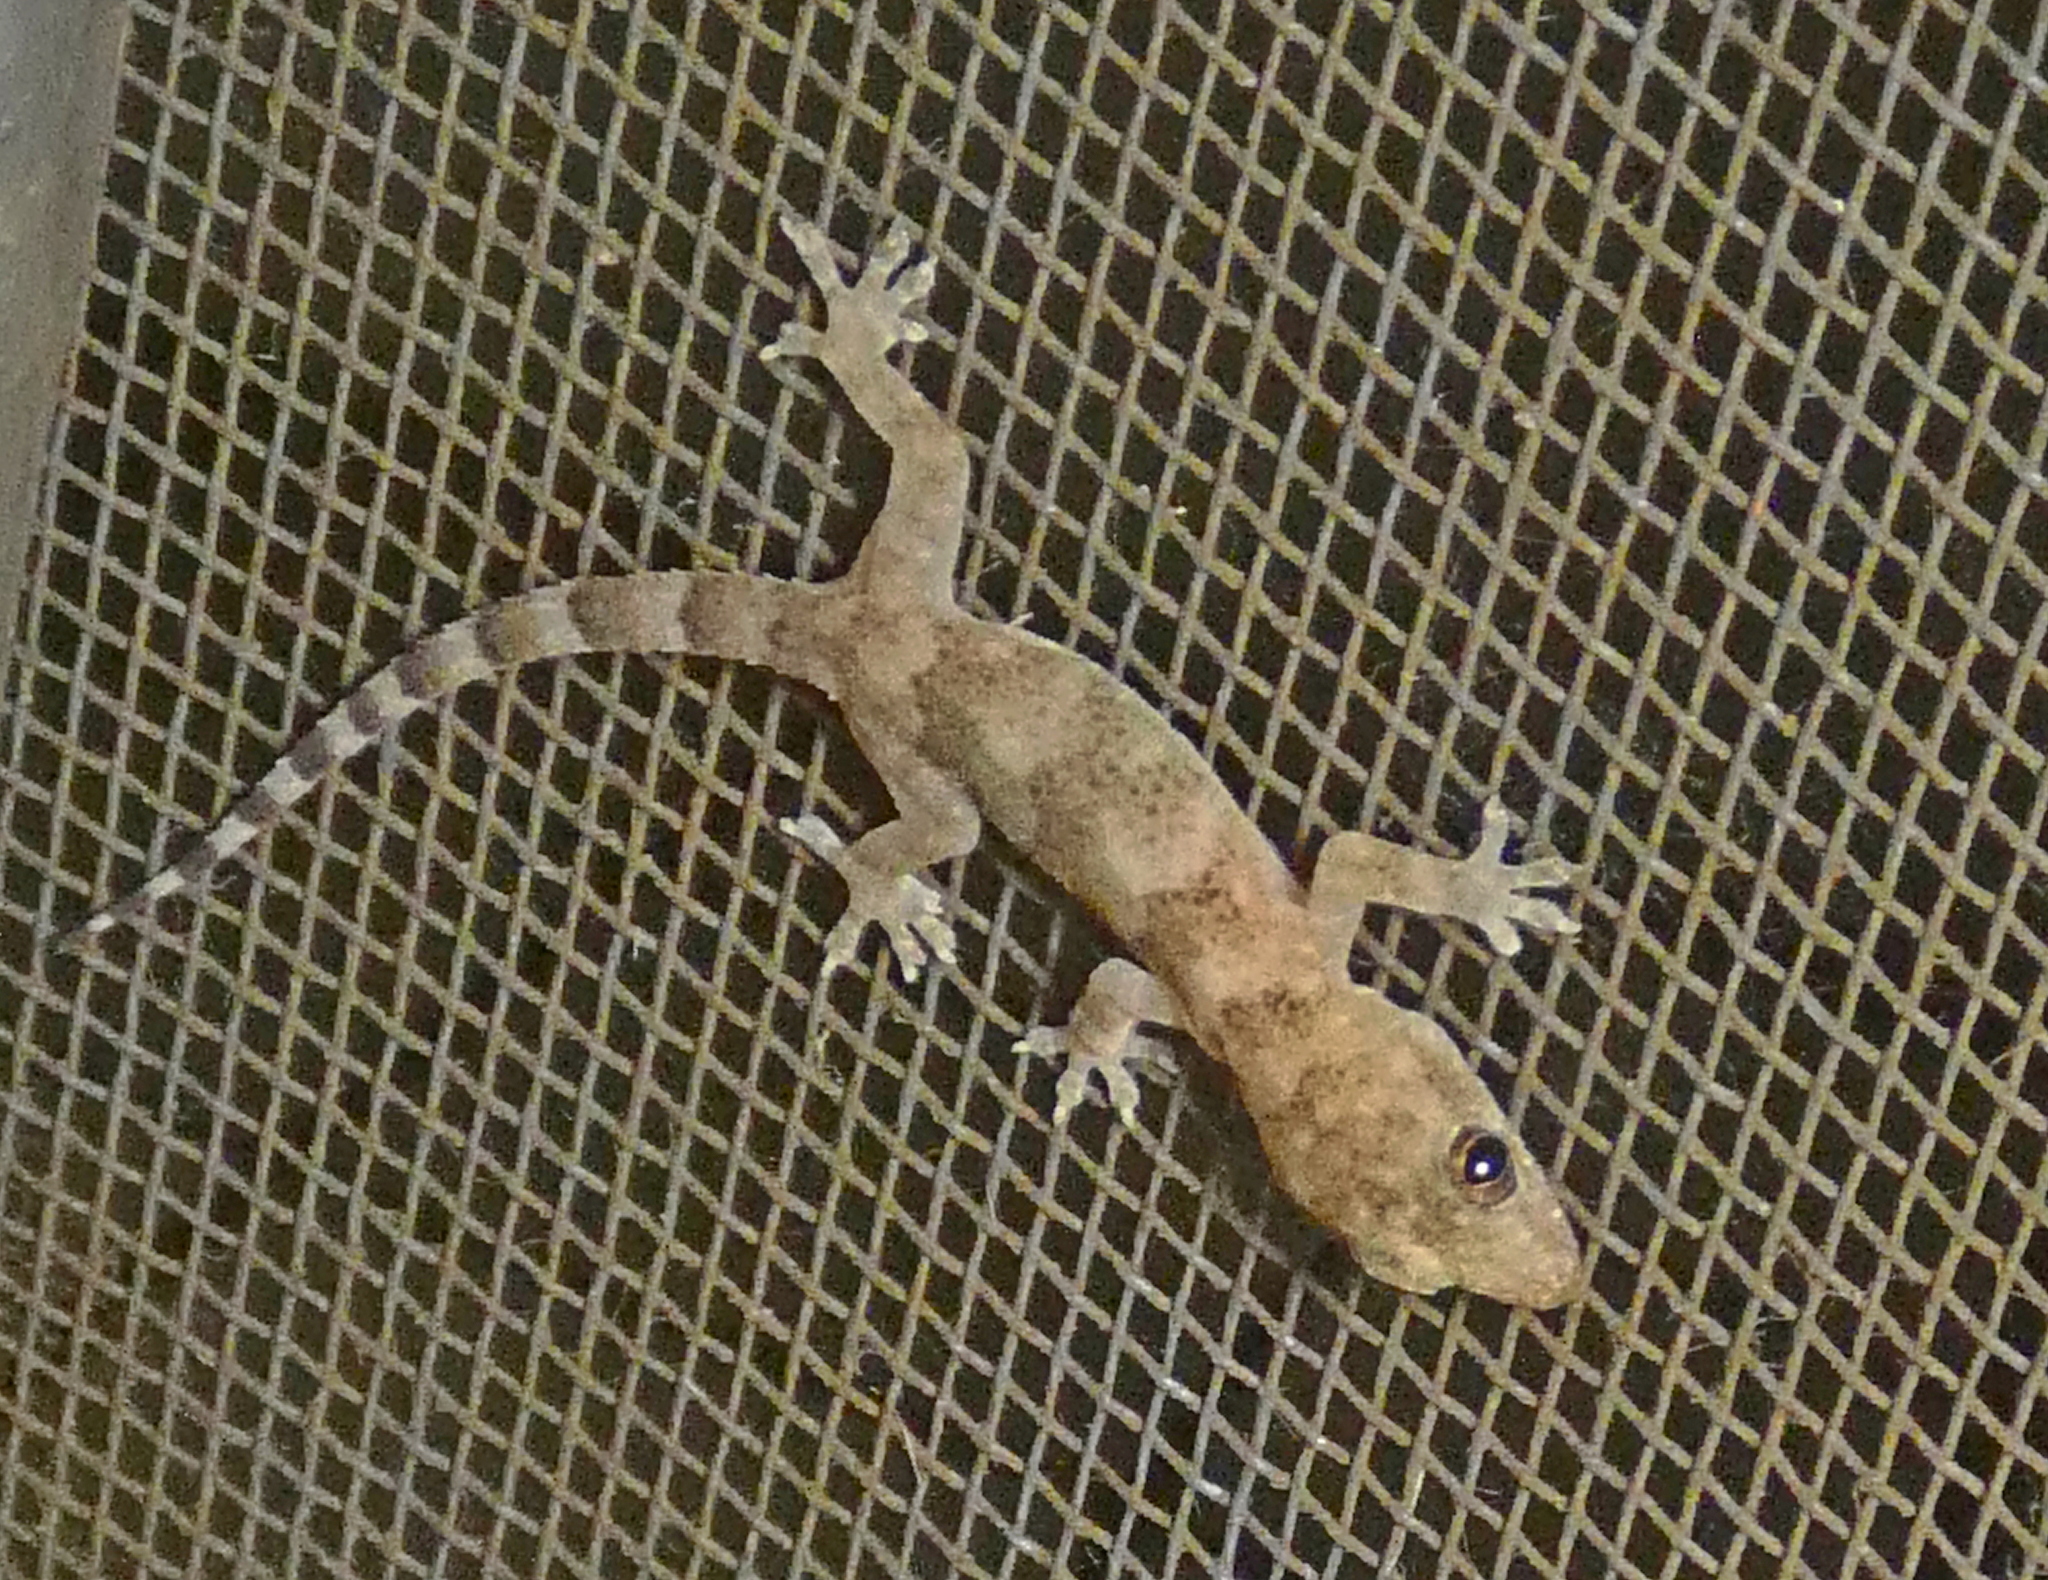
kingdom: Animalia
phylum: Chordata
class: Squamata
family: Gekkonidae
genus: Hemidactylus
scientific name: Hemidactylus mabouia
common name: House gecko
